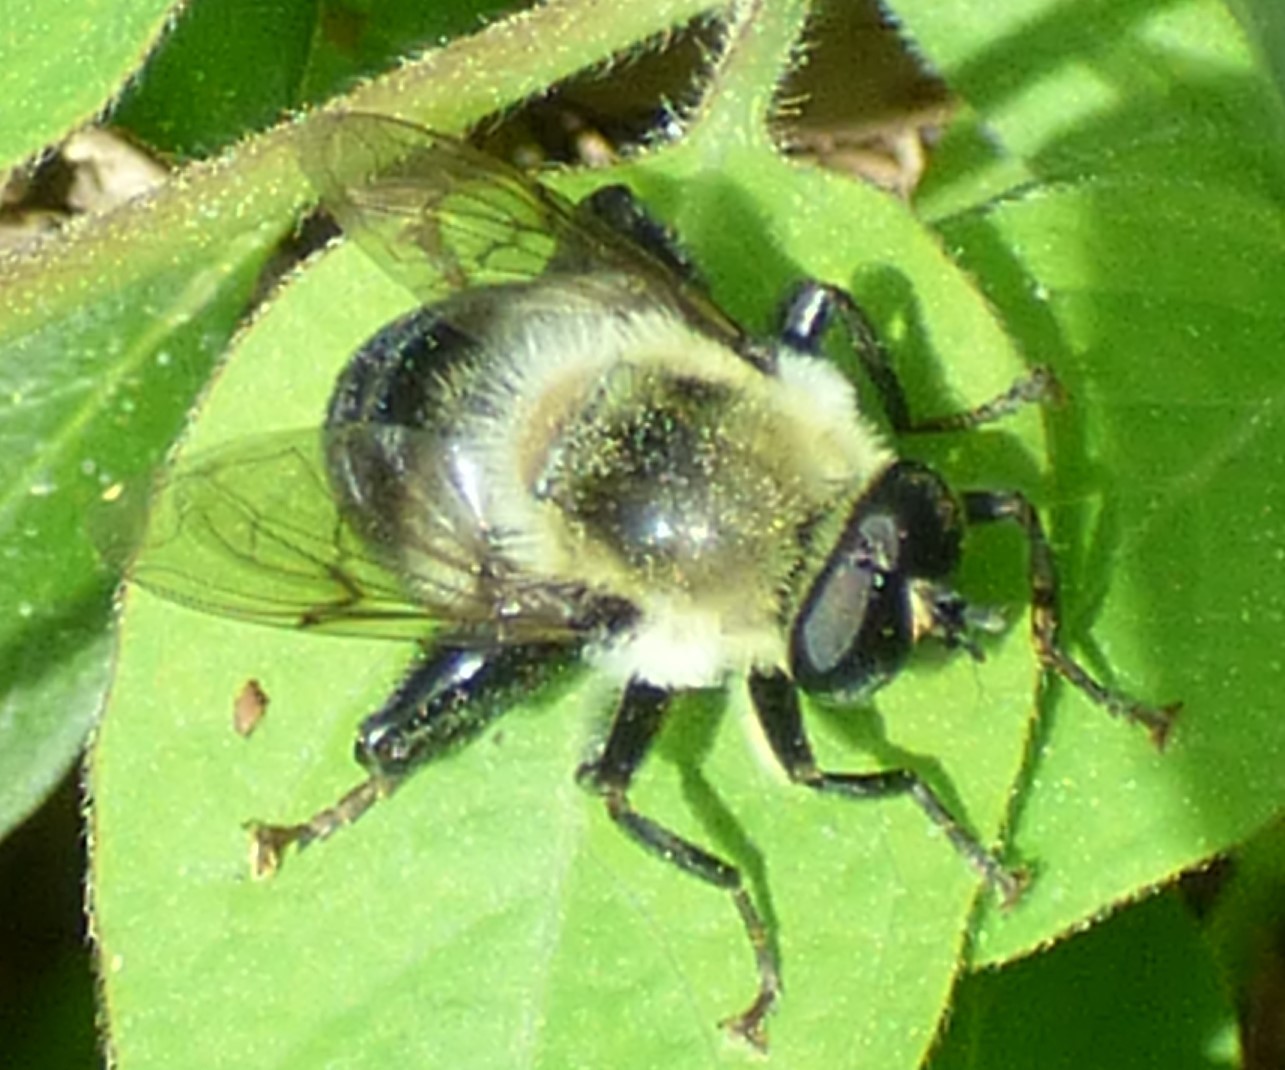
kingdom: Animalia
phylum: Arthropoda
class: Insecta
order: Diptera
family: Syrphidae
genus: Imatisma
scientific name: Imatisma posticata
